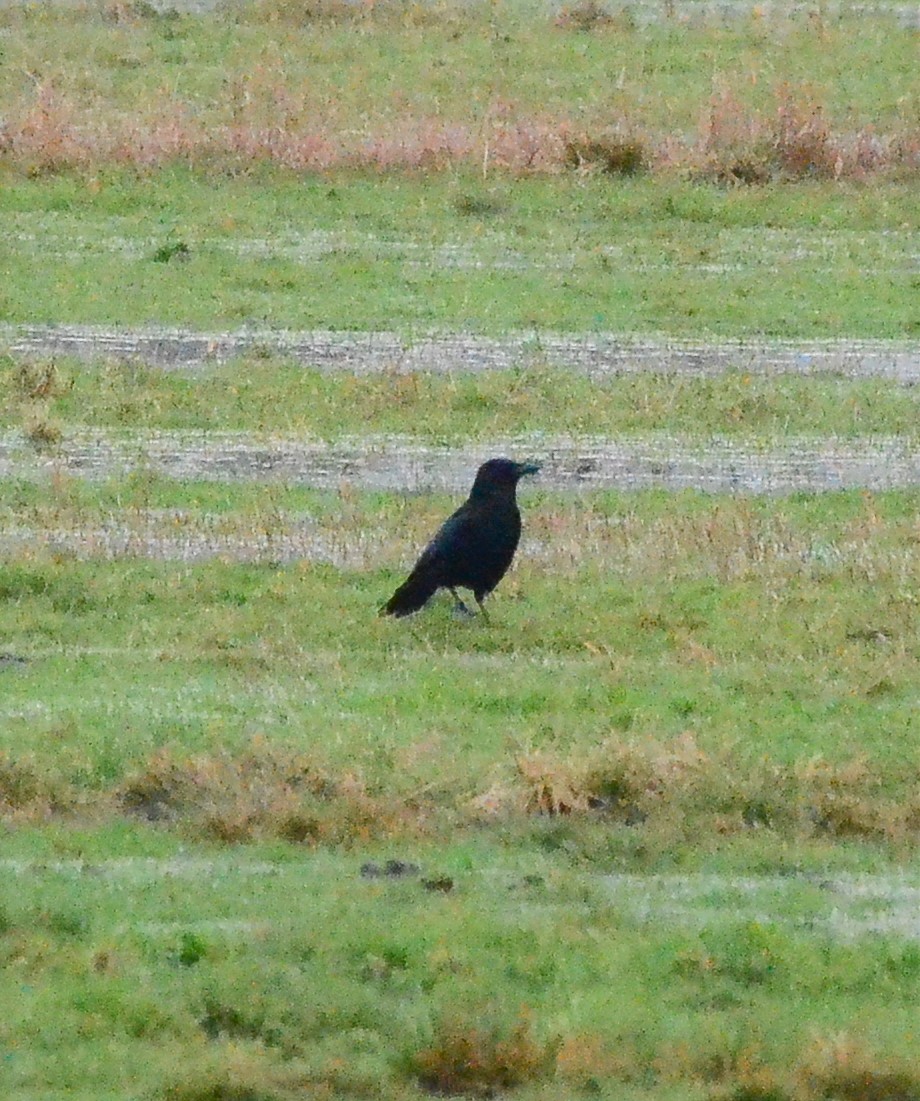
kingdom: Animalia
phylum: Chordata
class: Aves
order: Passeriformes
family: Corvidae
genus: Corvus
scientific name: Corvus corone
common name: Carrion crow
